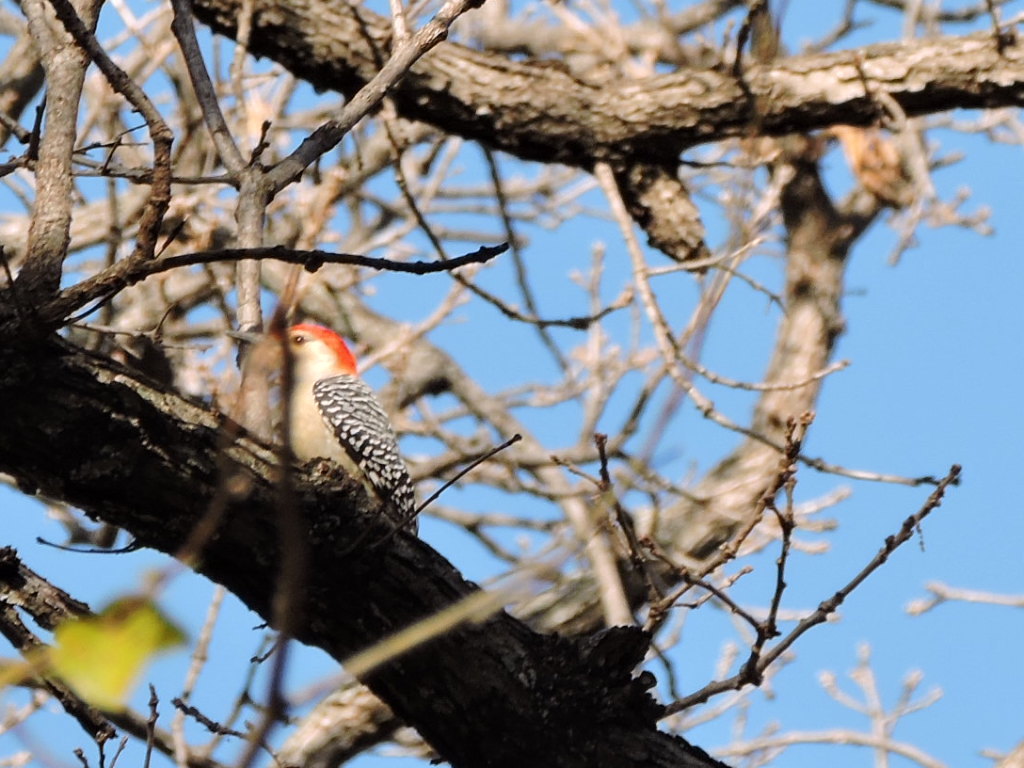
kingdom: Animalia
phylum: Chordata
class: Aves
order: Piciformes
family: Picidae
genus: Melanerpes
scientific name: Melanerpes carolinus
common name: Red-bellied woodpecker
